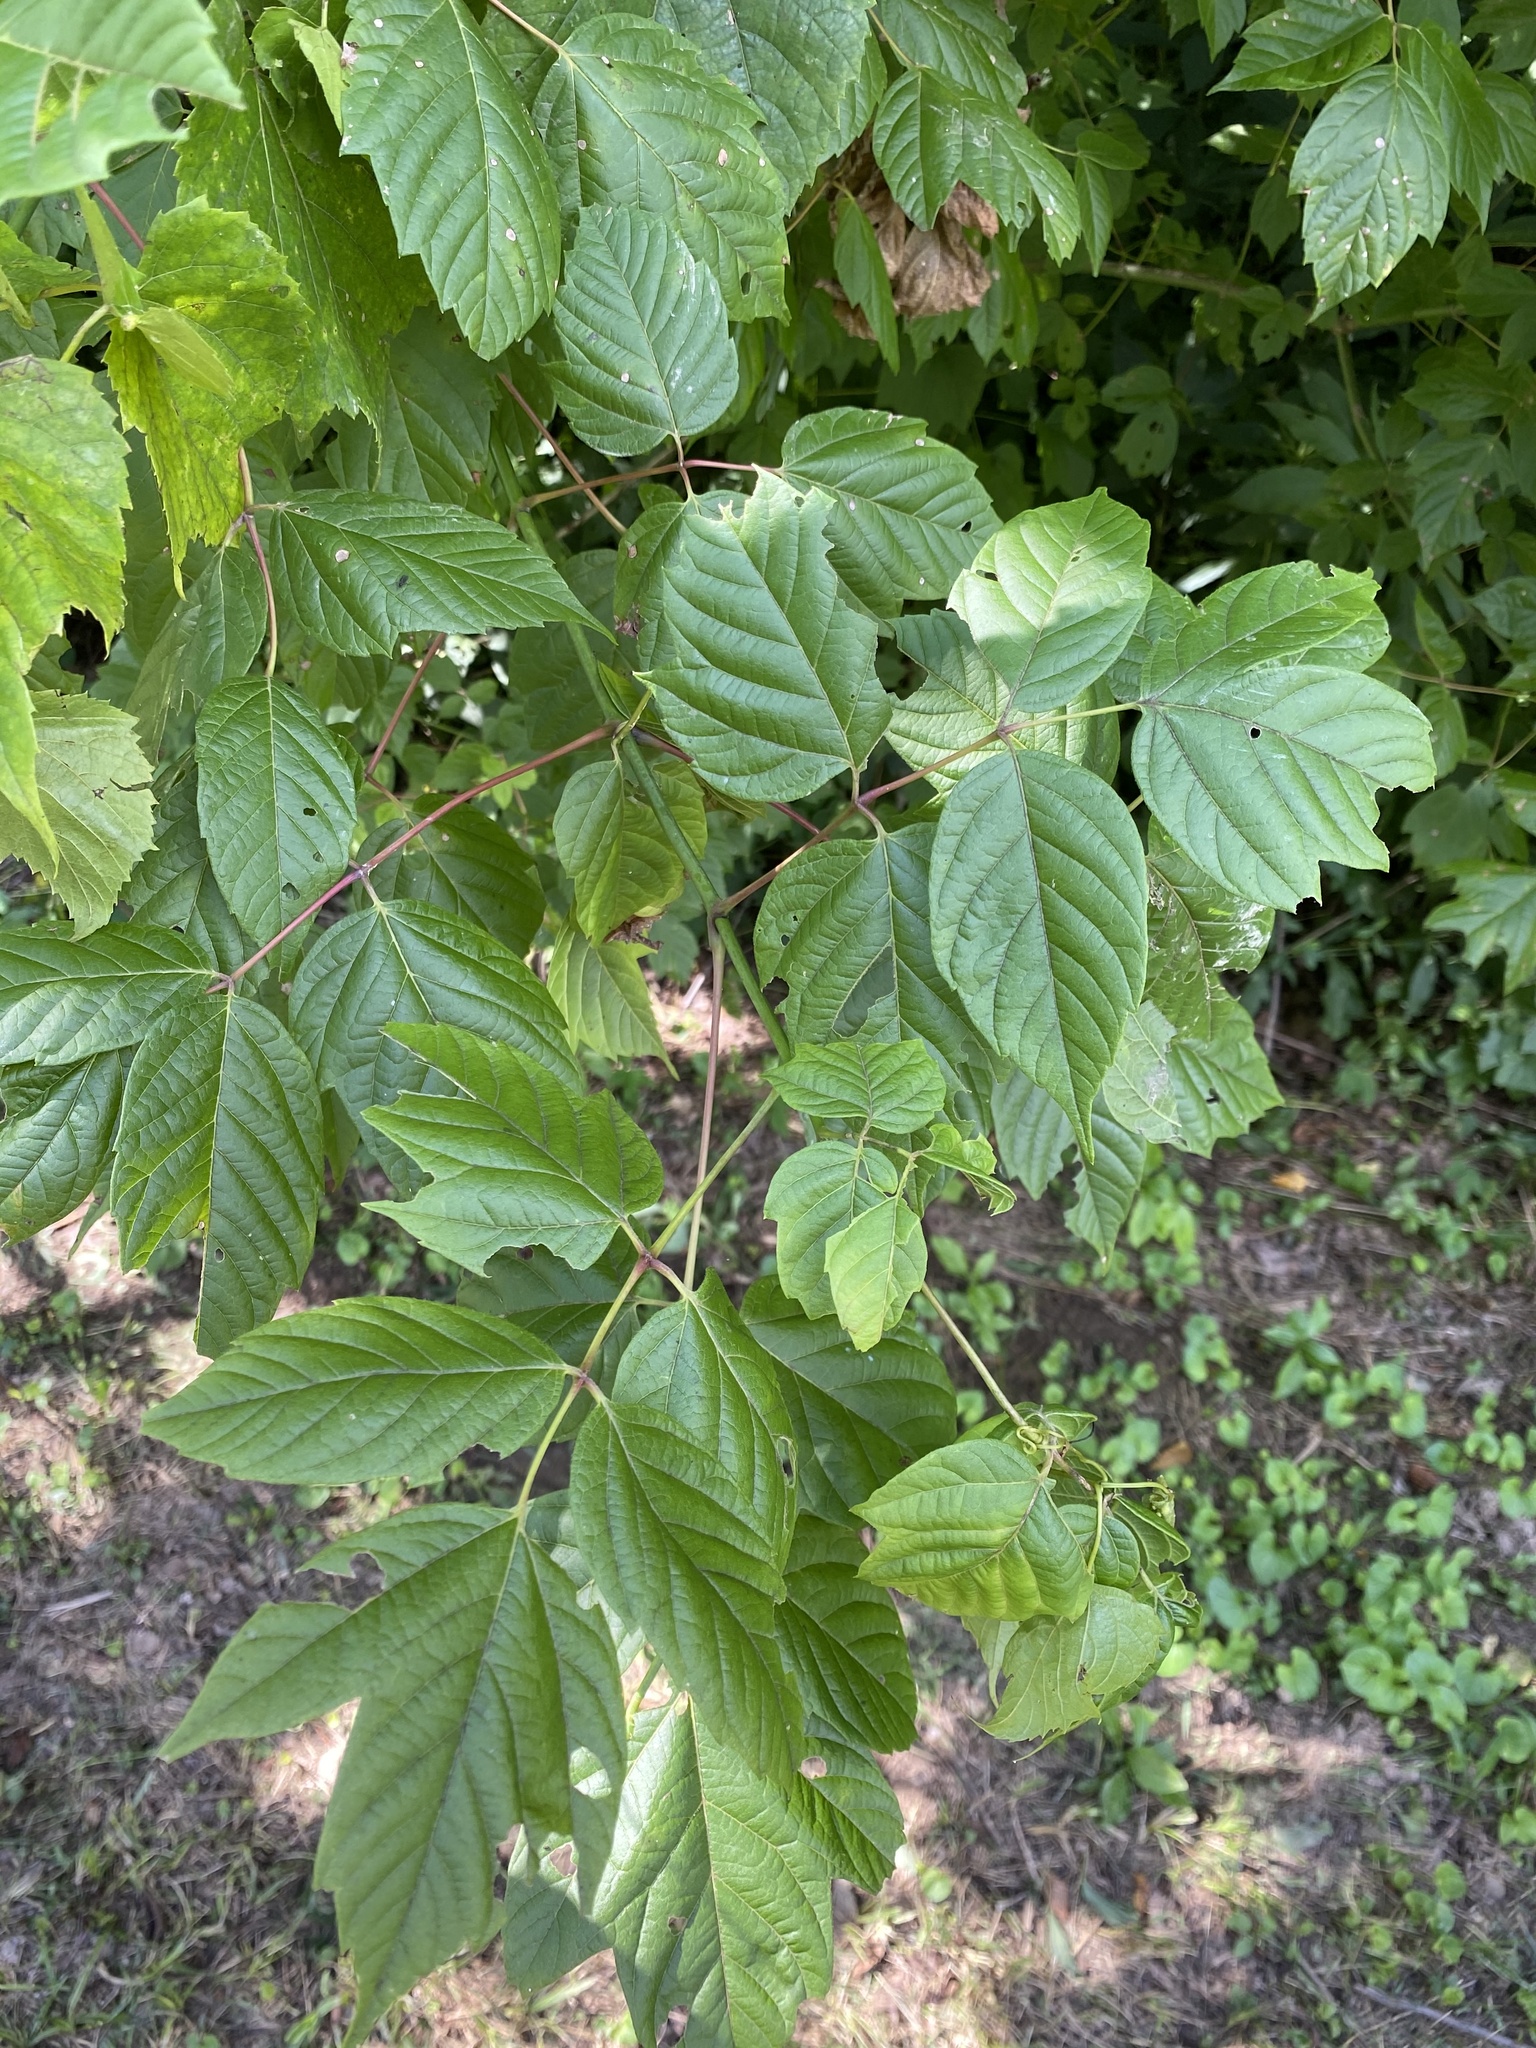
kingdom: Plantae
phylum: Tracheophyta
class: Magnoliopsida
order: Sapindales
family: Sapindaceae
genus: Acer
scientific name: Acer negundo
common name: Ashleaf maple
